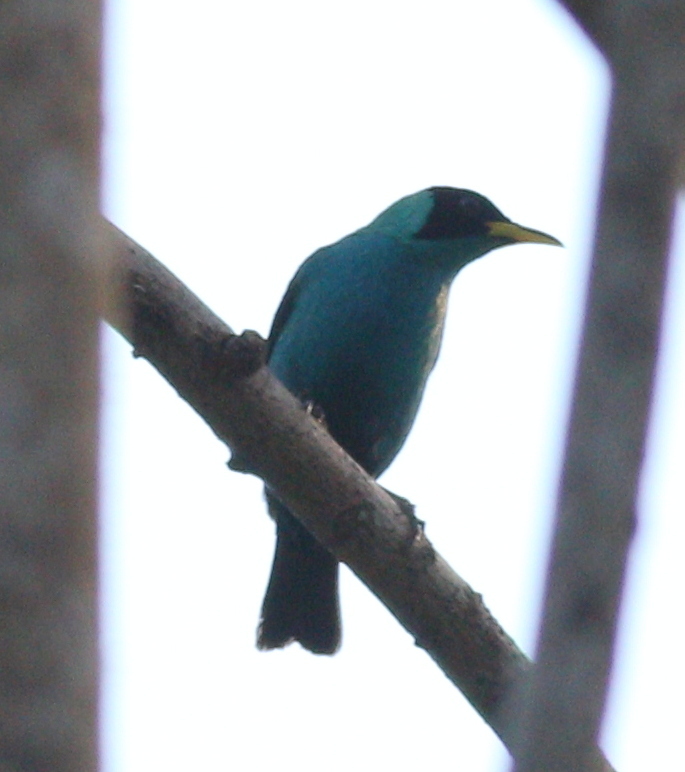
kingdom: Animalia
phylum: Chordata
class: Aves
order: Passeriformes
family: Thraupidae
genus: Chlorophanes
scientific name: Chlorophanes spiza
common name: Green honeycreeper
